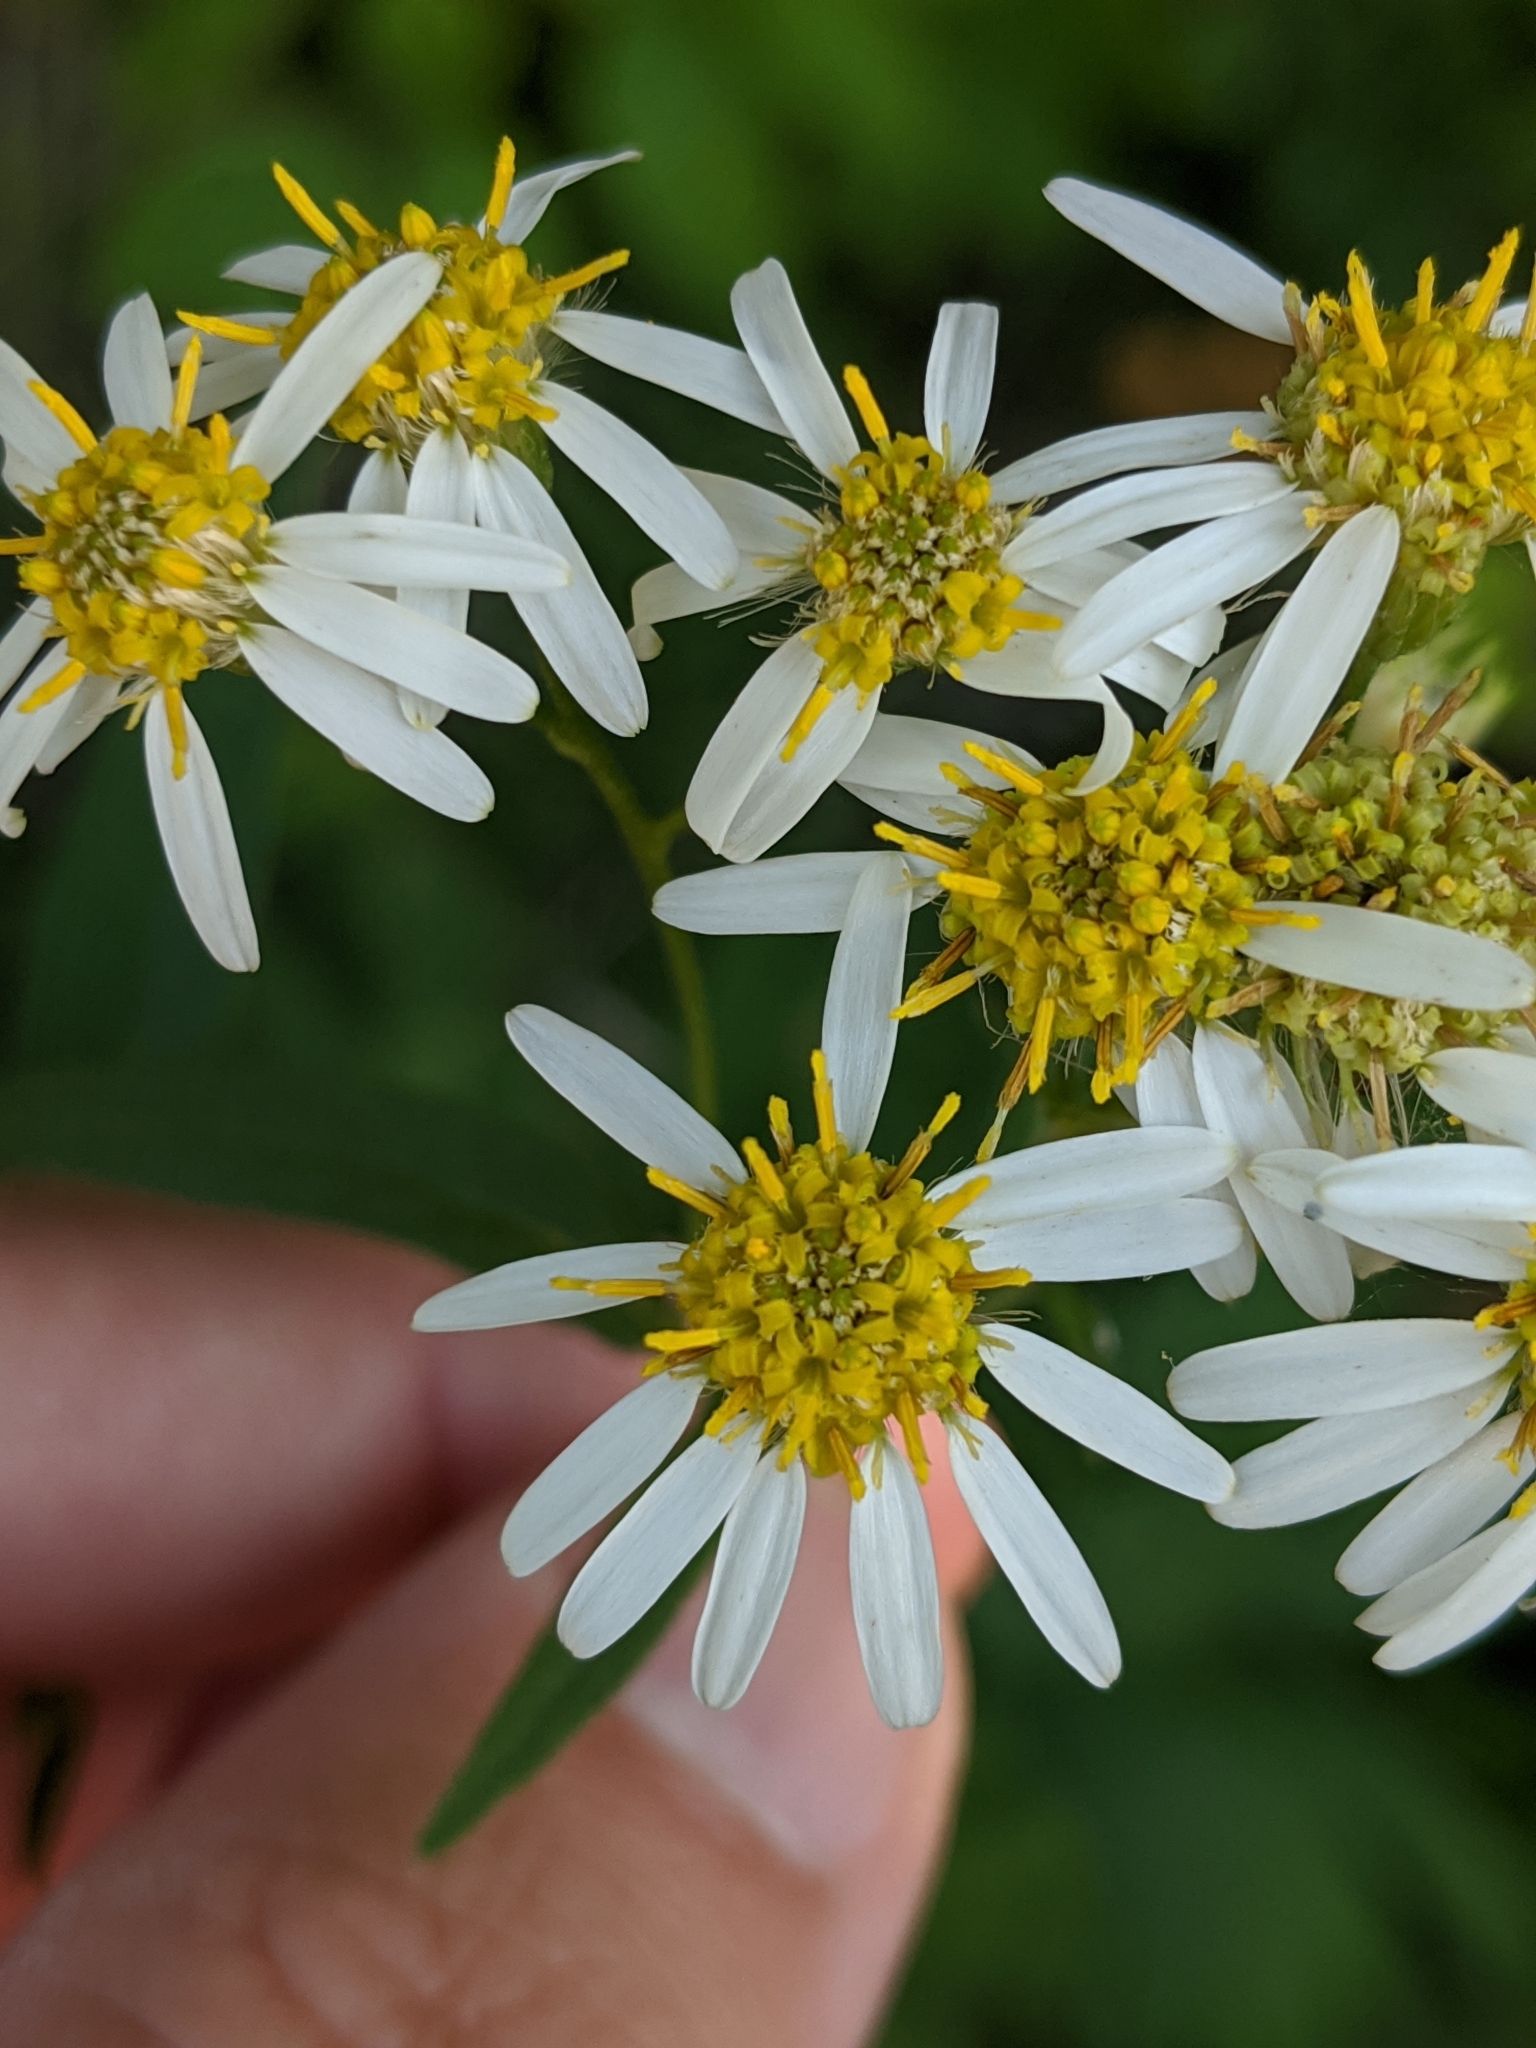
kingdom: Plantae
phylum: Tracheophyta
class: Magnoliopsida
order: Asterales
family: Asteraceae
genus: Doellingeria
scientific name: Doellingeria umbellata
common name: Flat-top white aster
